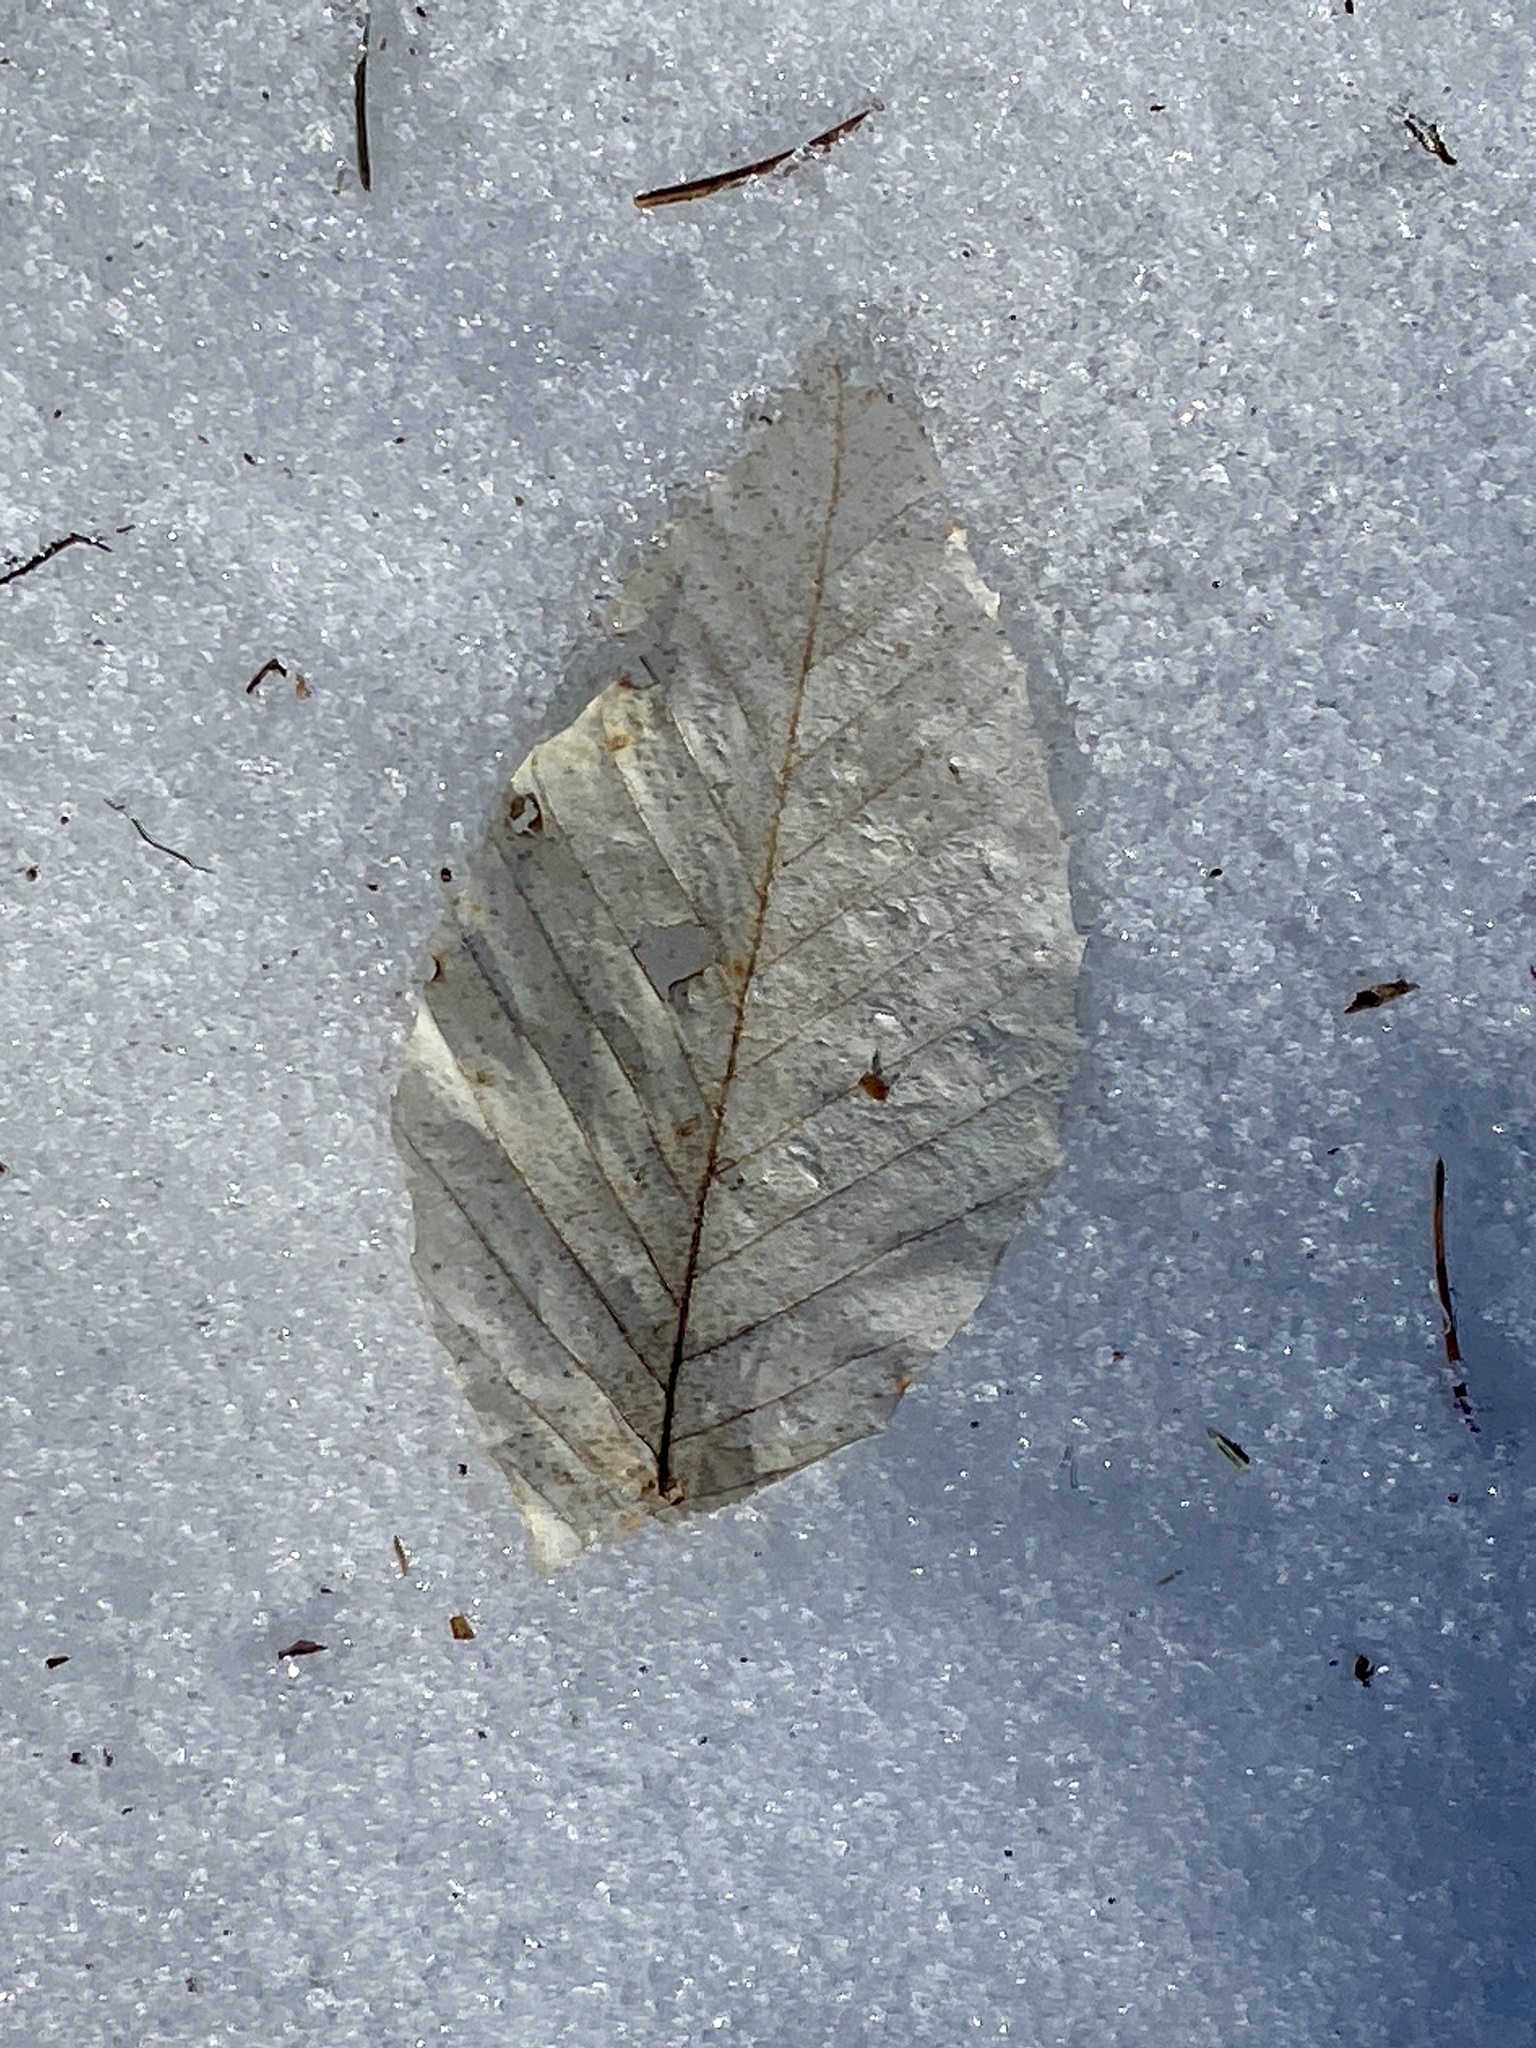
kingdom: Plantae
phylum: Tracheophyta
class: Magnoliopsida
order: Fagales
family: Fagaceae
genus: Fagus
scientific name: Fagus grandifolia
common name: American beech
